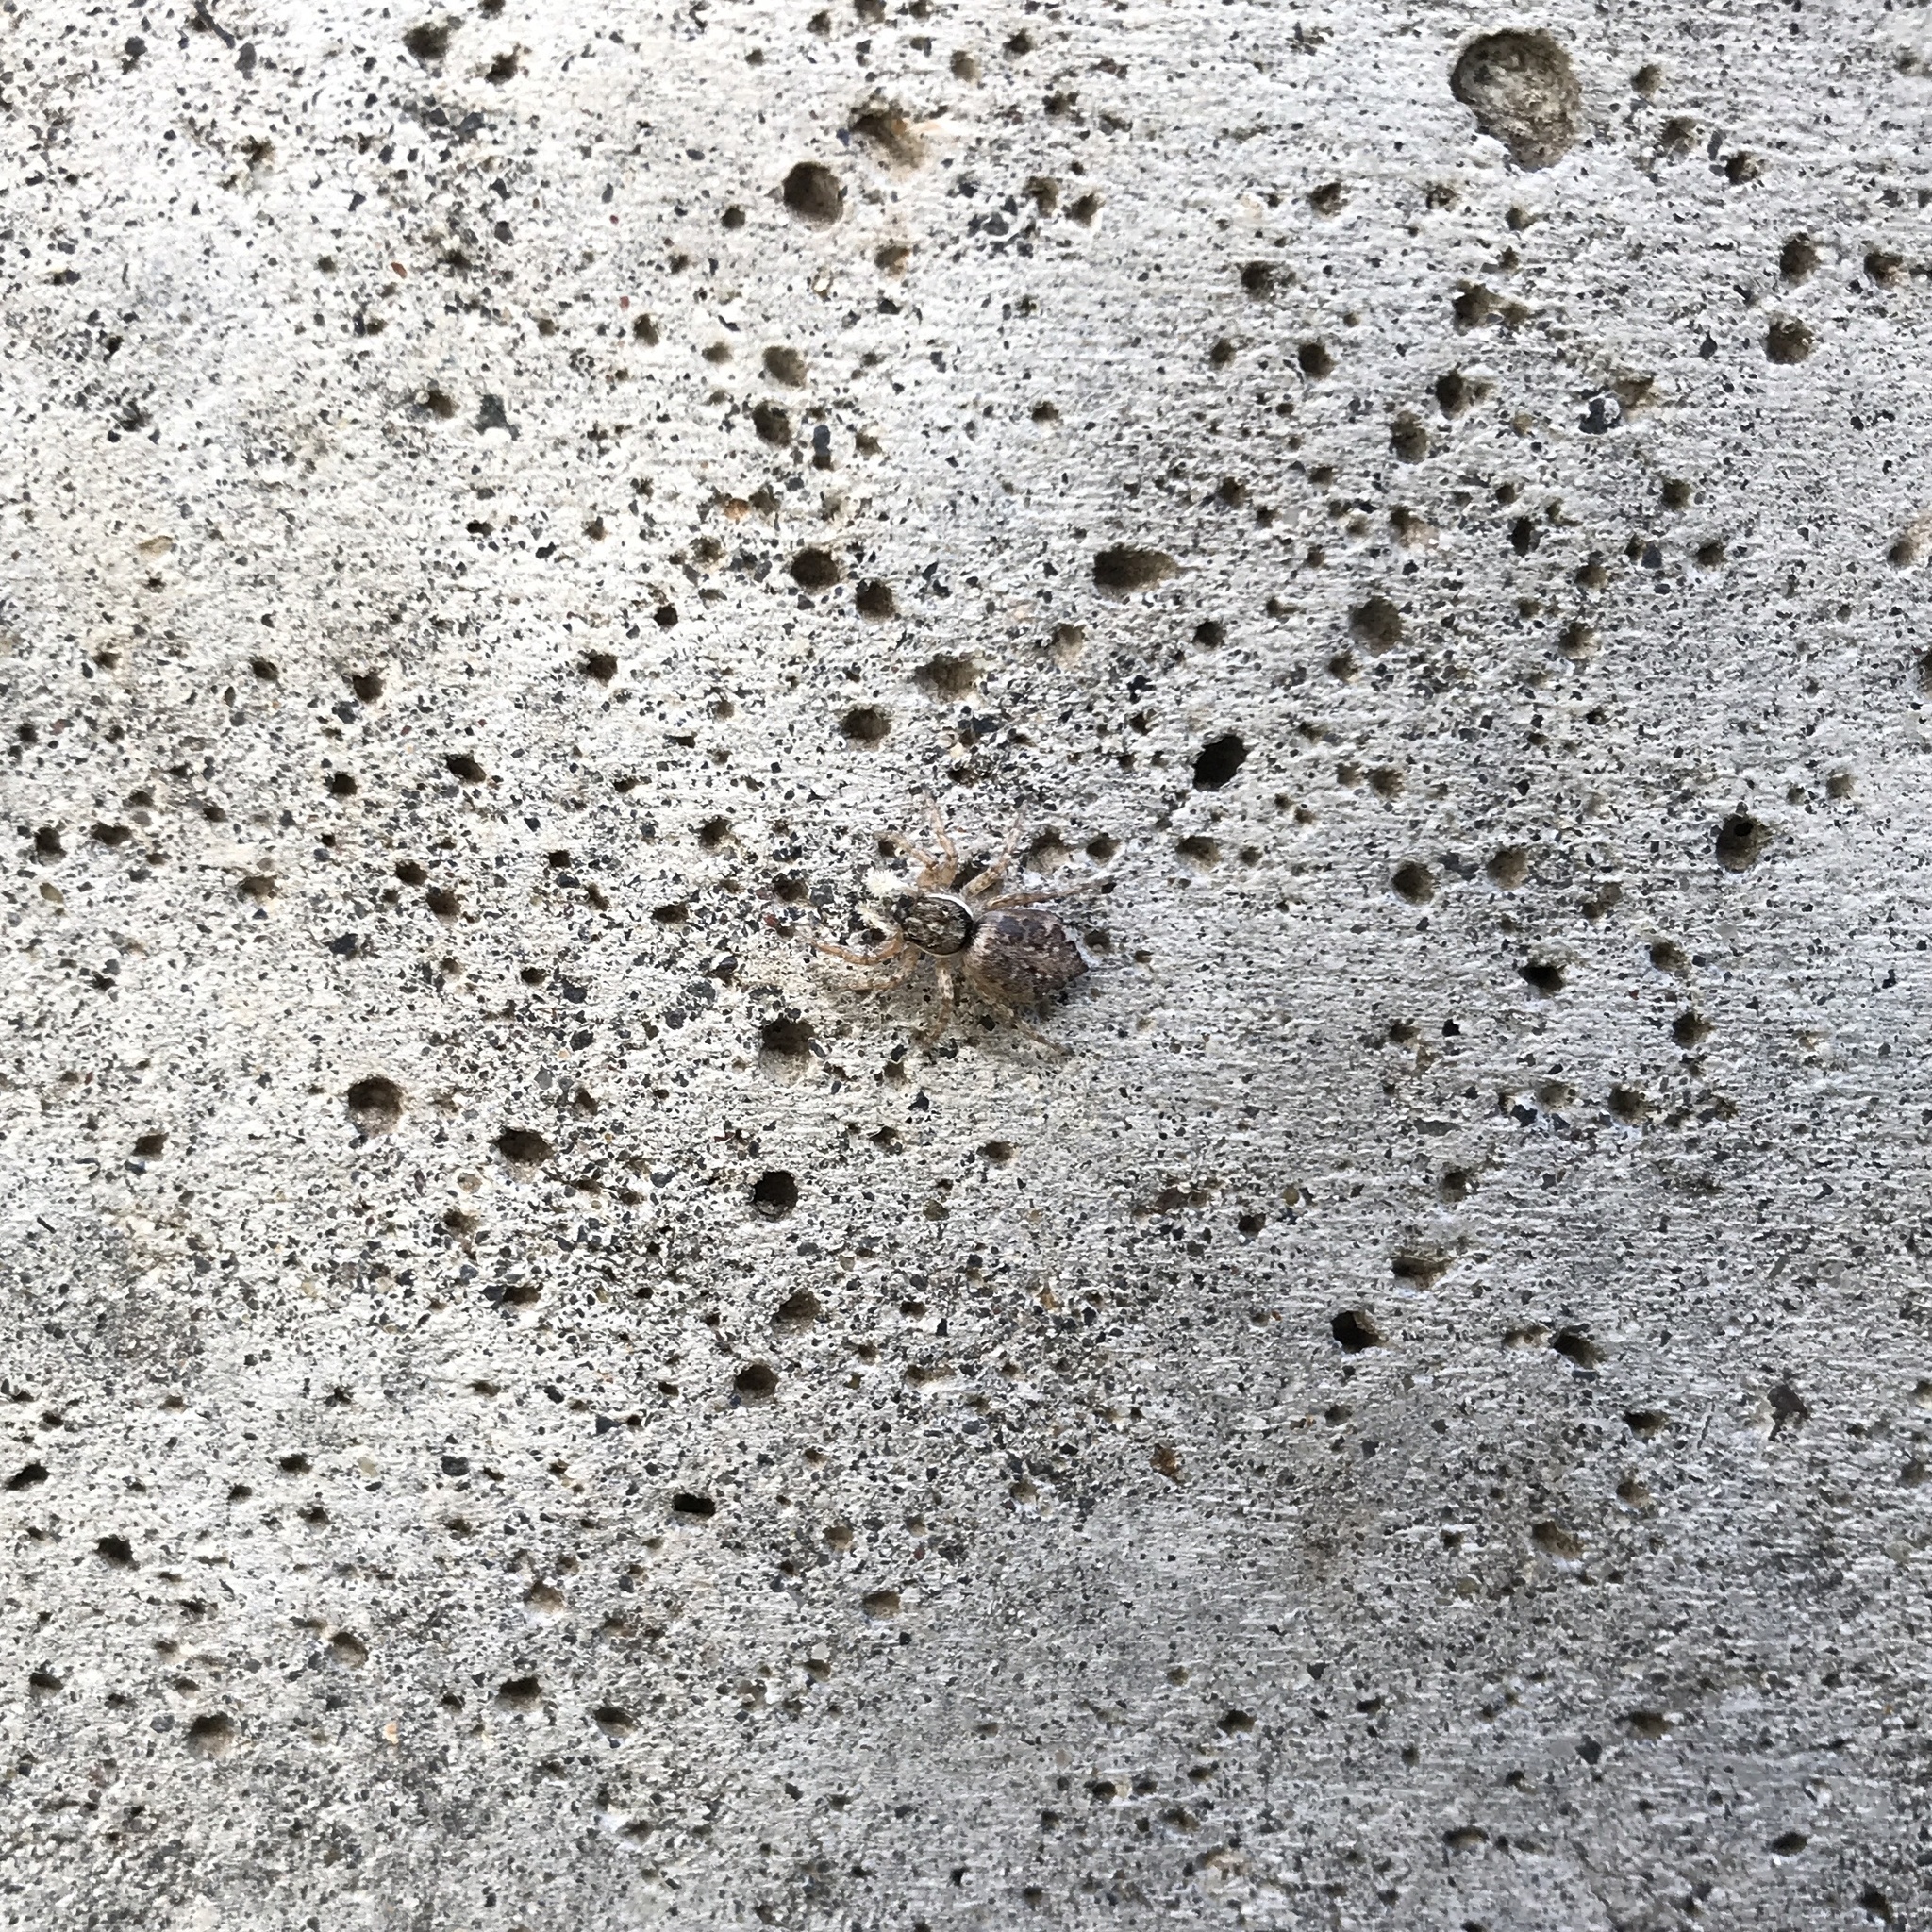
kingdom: Animalia
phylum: Arthropoda
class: Arachnida
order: Araneae
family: Salticidae
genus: Menemerus
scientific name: Menemerus semilimbatus
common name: Jumping spider
